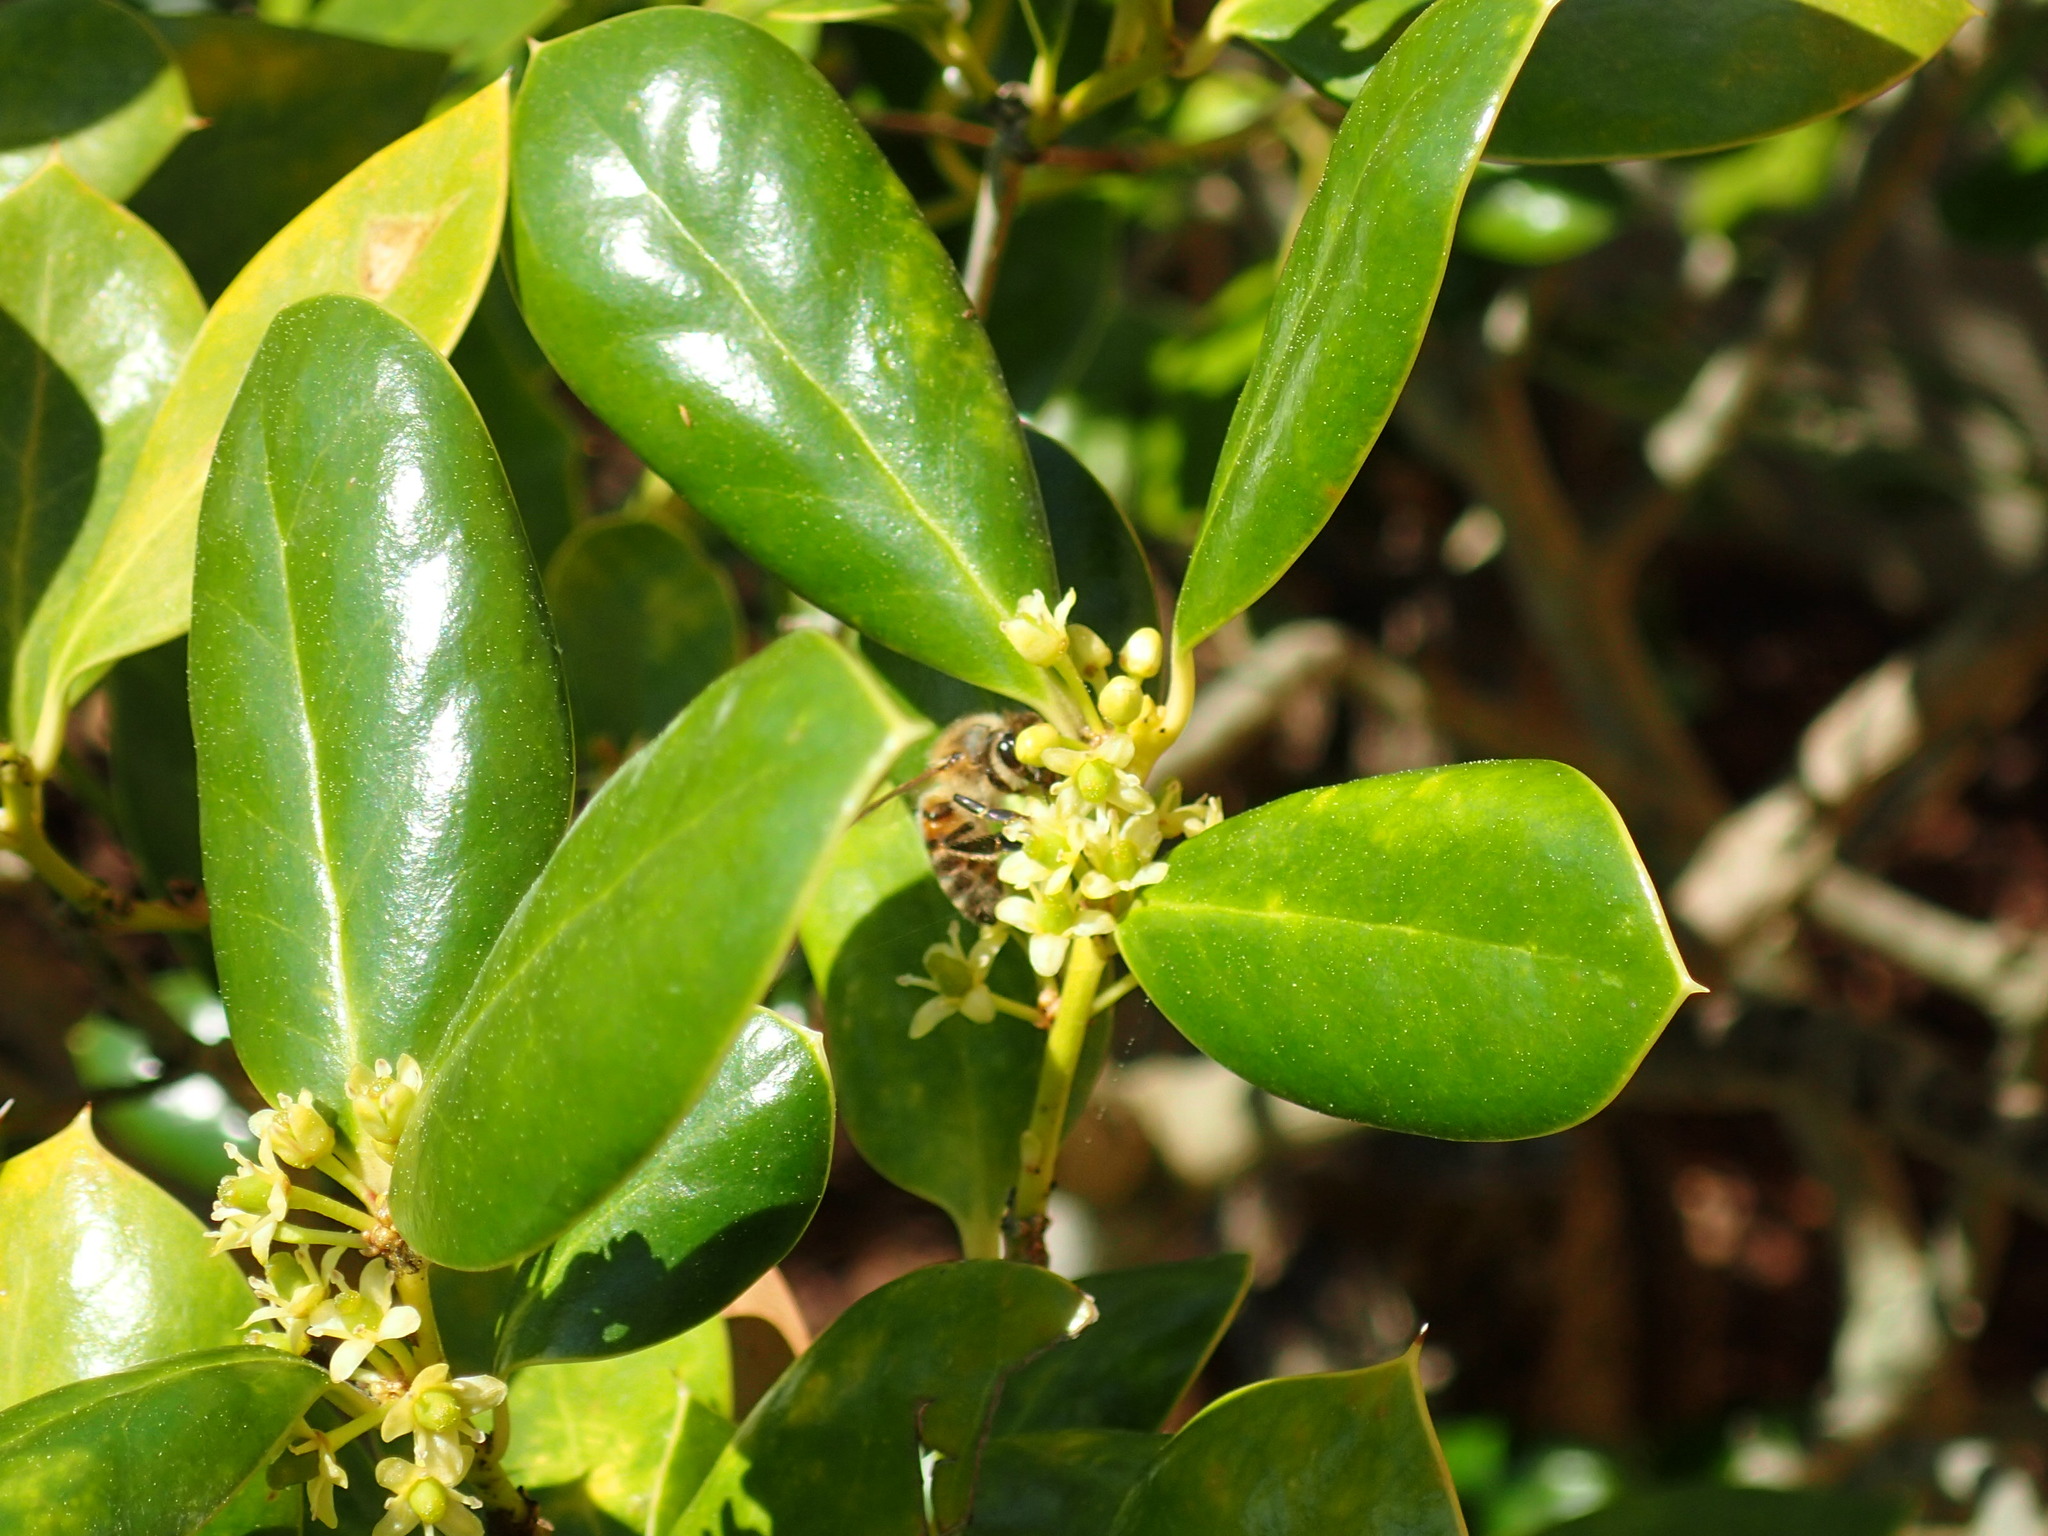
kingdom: Animalia
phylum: Arthropoda
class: Insecta
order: Hymenoptera
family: Apidae
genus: Apis
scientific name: Apis mellifera
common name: Honey bee
